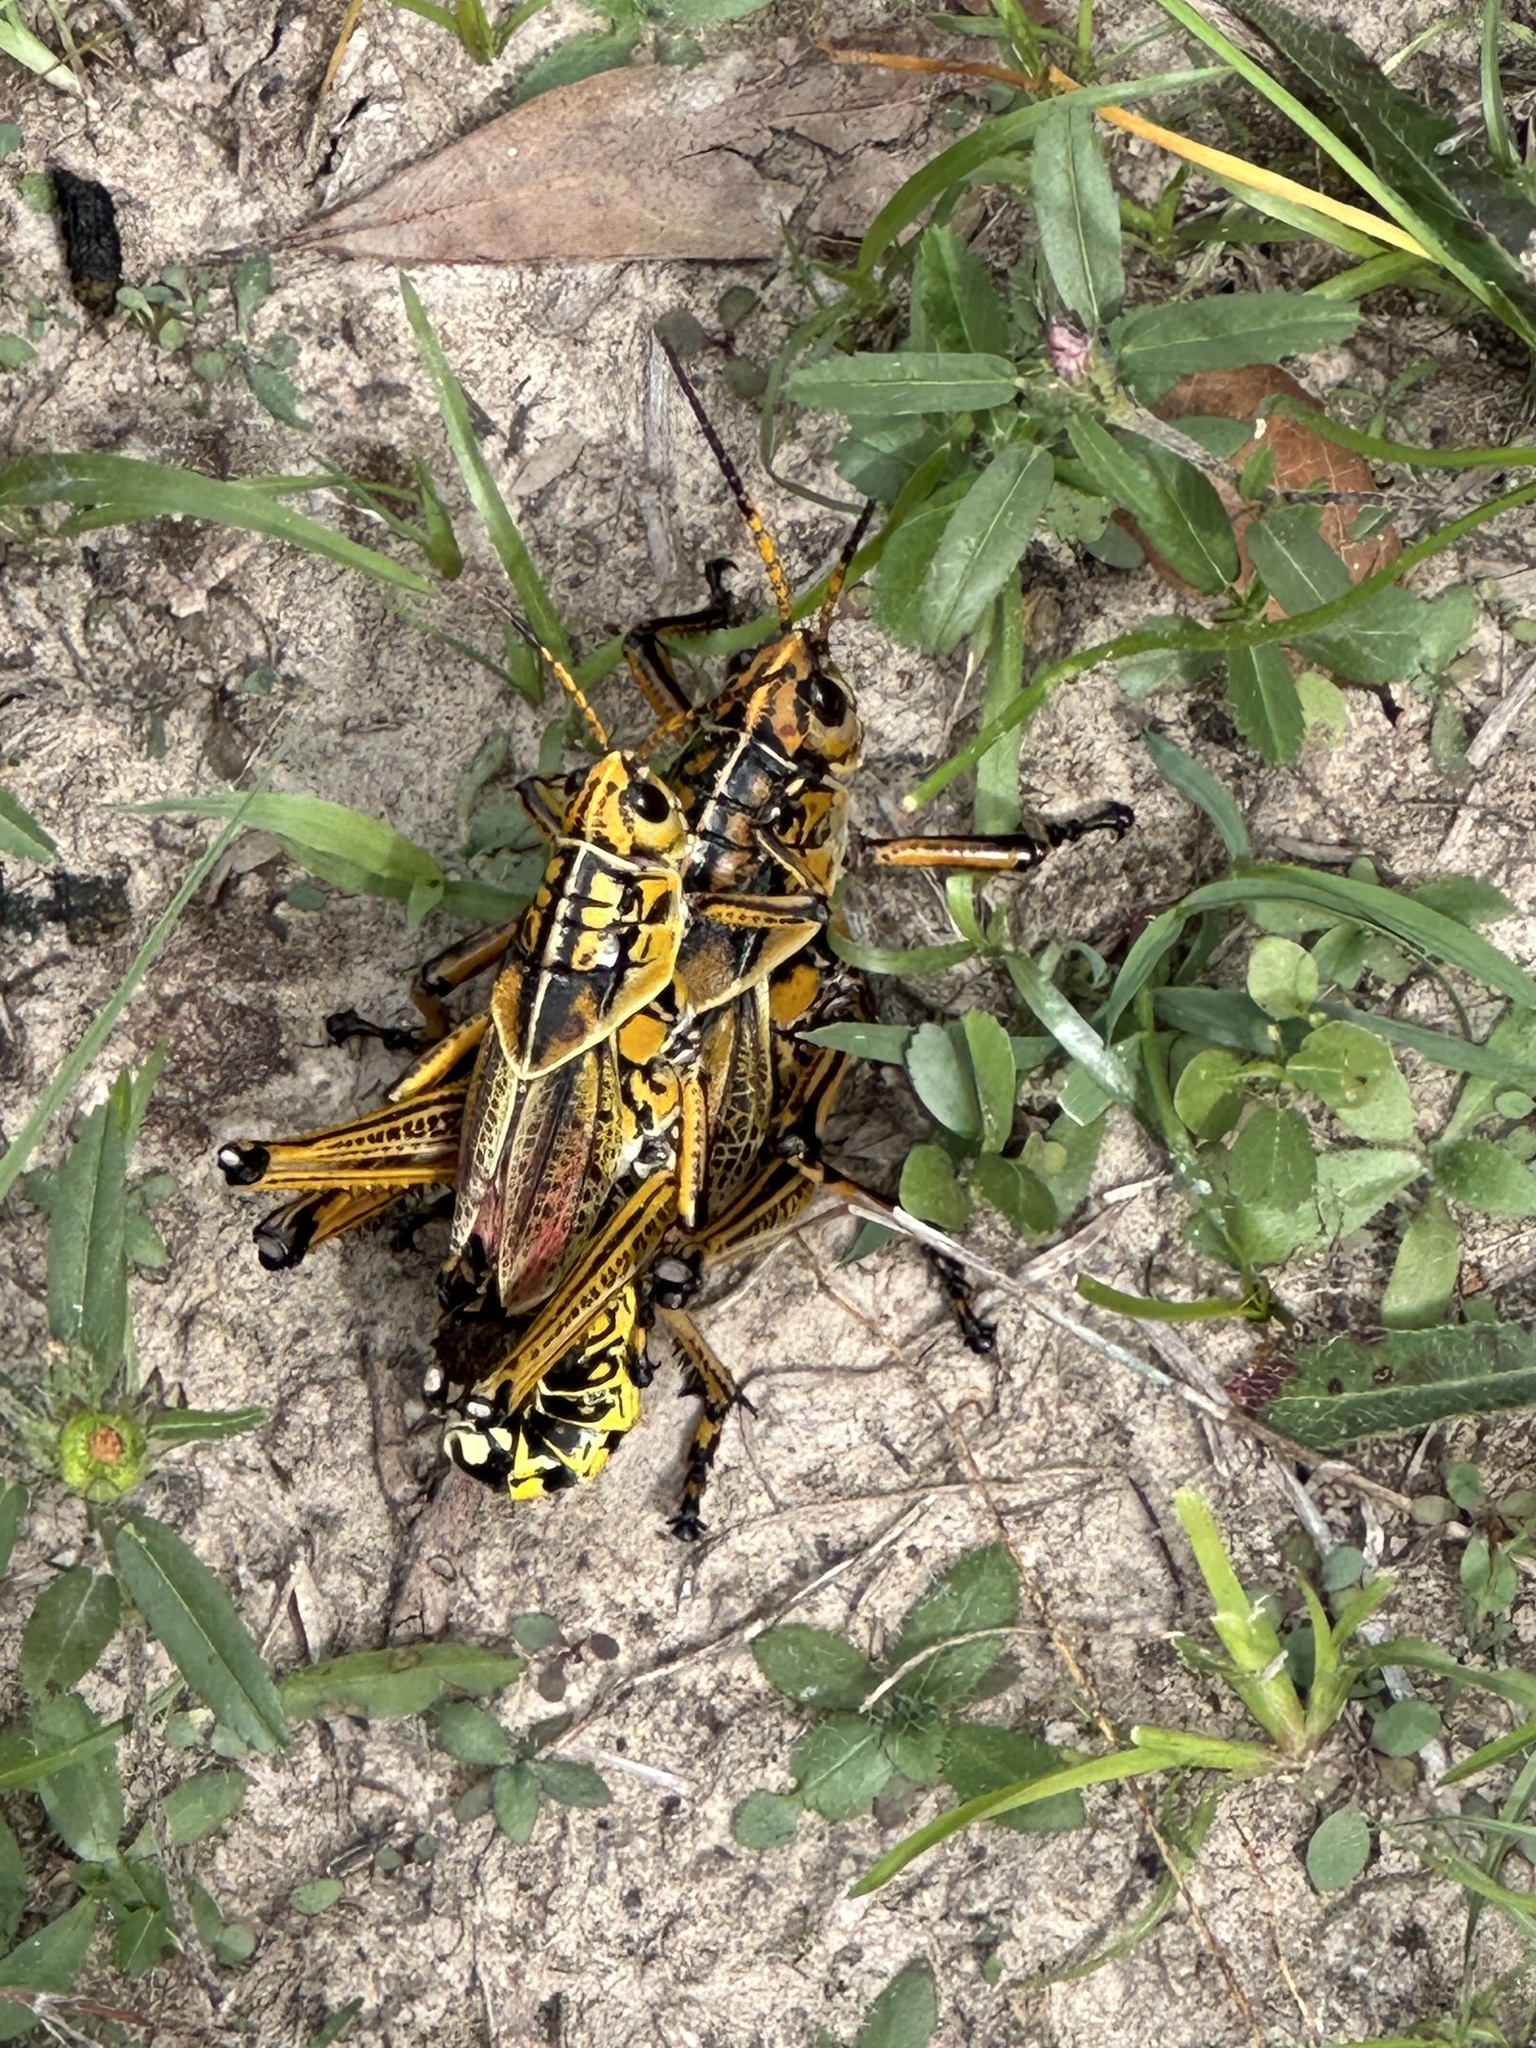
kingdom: Animalia
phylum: Arthropoda
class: Insecta
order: Orthoptera
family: Romaleidae
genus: Romalea
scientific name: Romalea microptera
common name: Eastern lubber grasshopper
